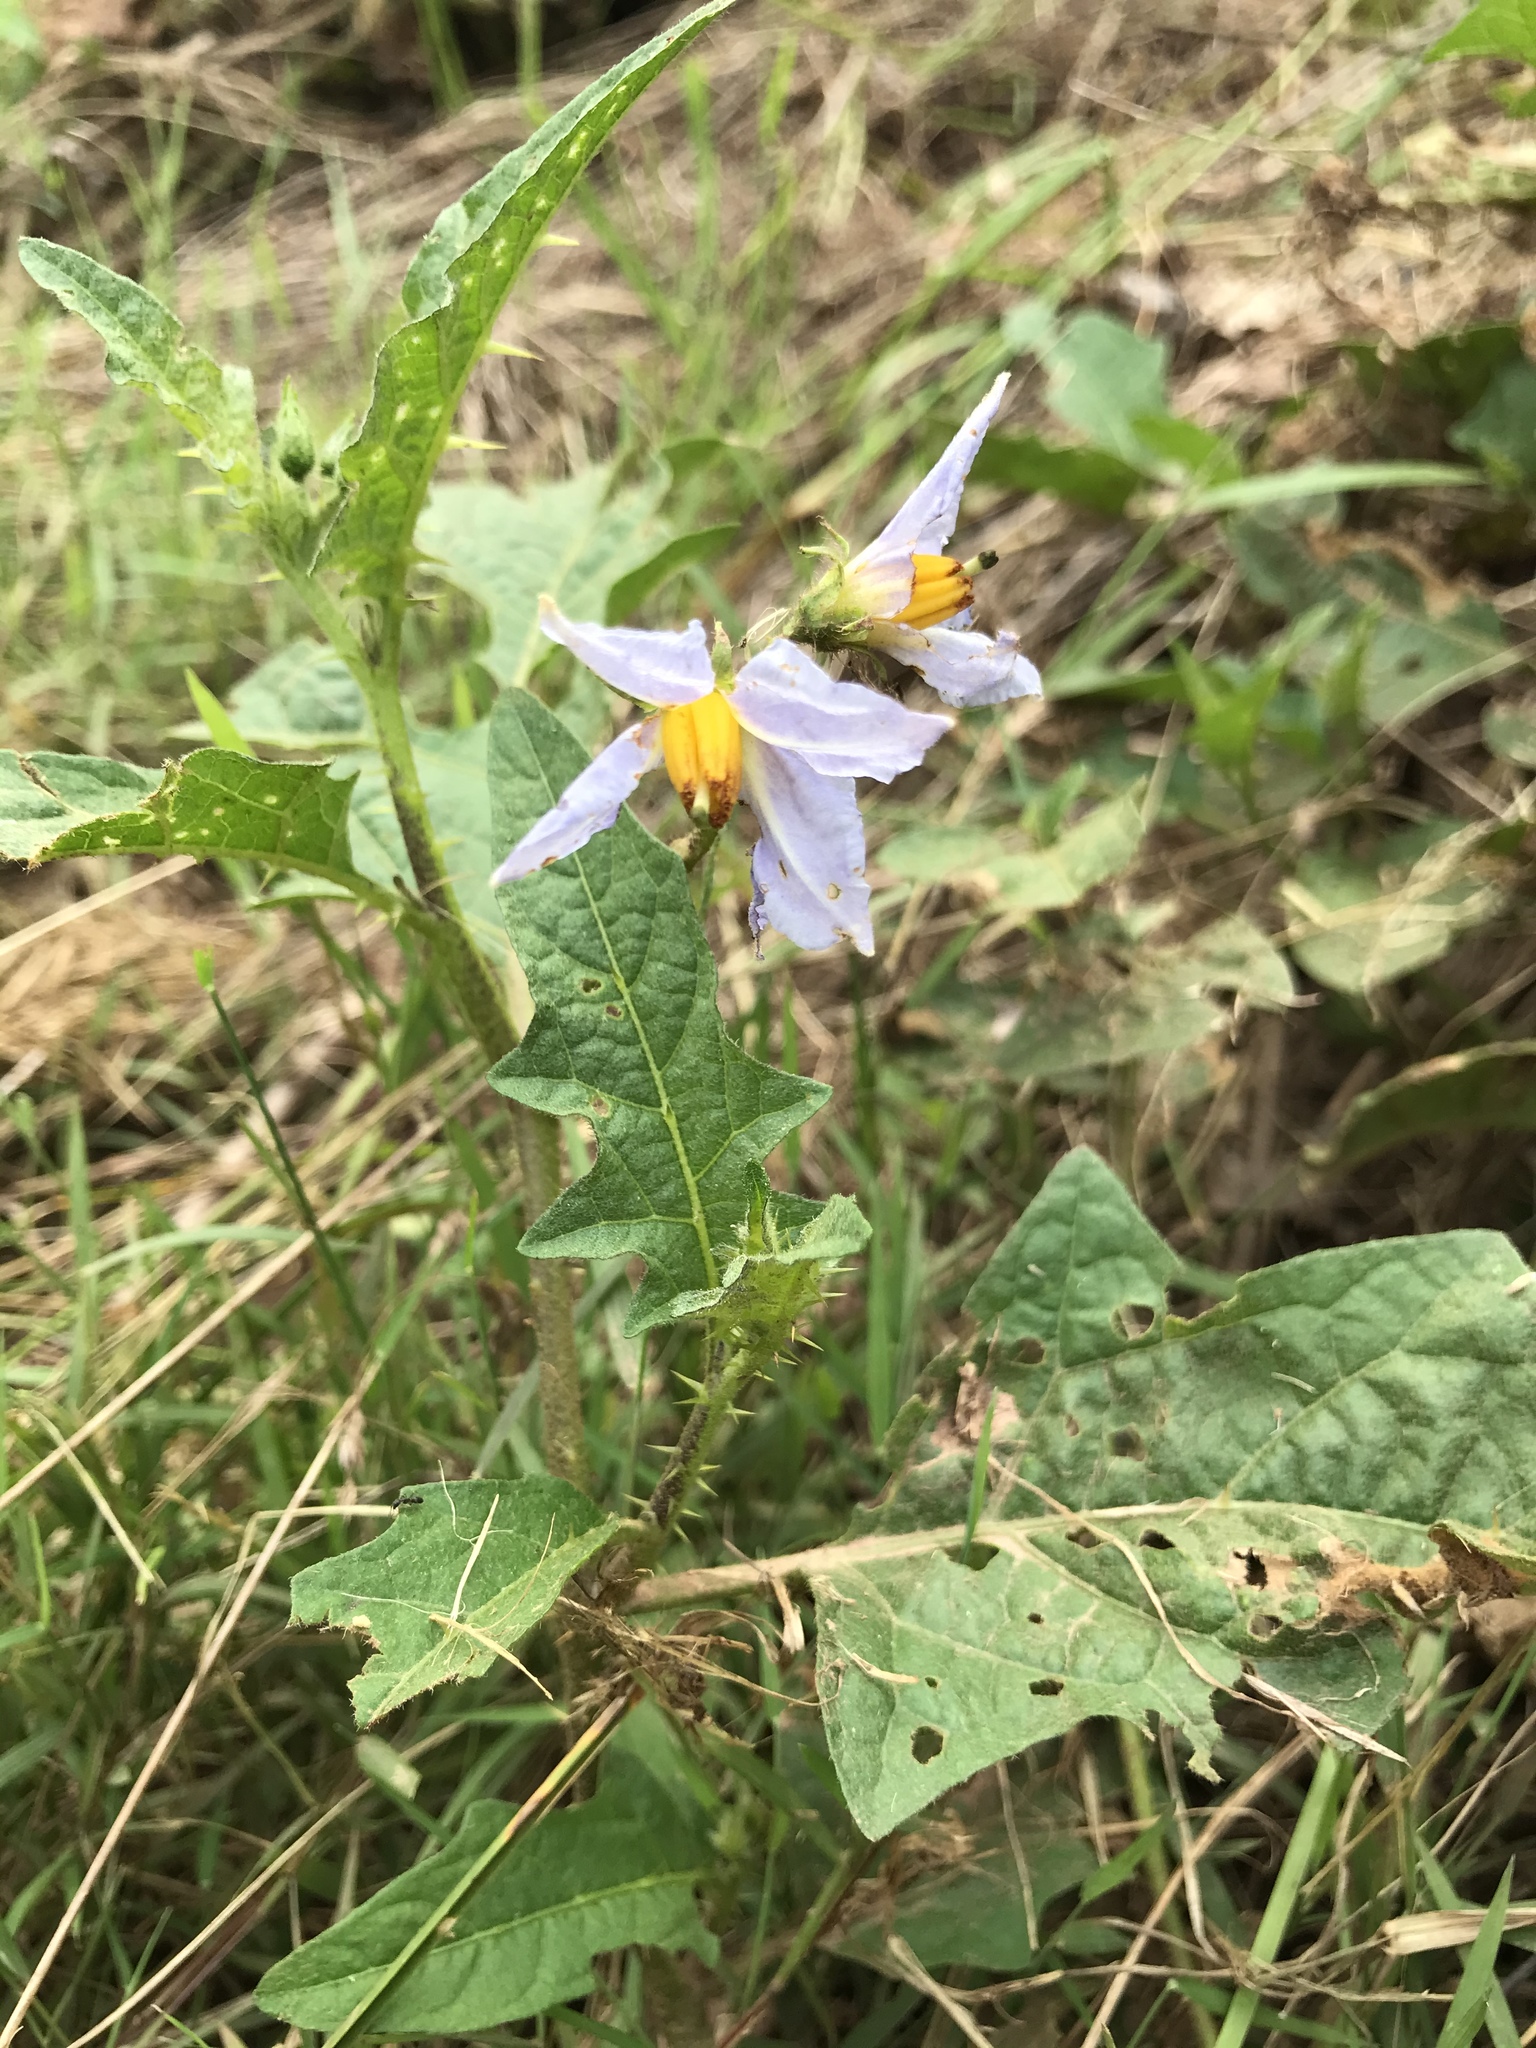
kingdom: Plantae
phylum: Tracheophyta
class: Magnoliopsida
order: Solanales
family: Solanaceae
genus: Solanum
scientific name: Solanum carolinense
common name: Horse-nettle
